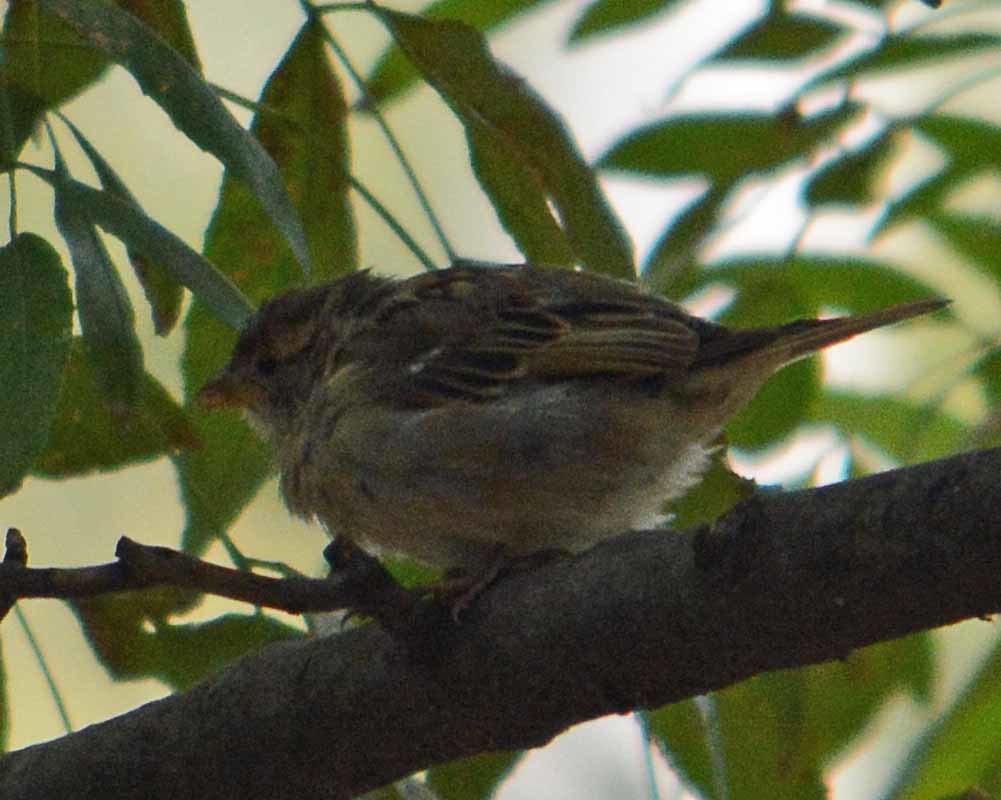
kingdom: Animalia
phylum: Chordata
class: Aves
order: Passeriformes
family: Passeridae
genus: Passer
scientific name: Passer domesticus
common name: House sparrow
